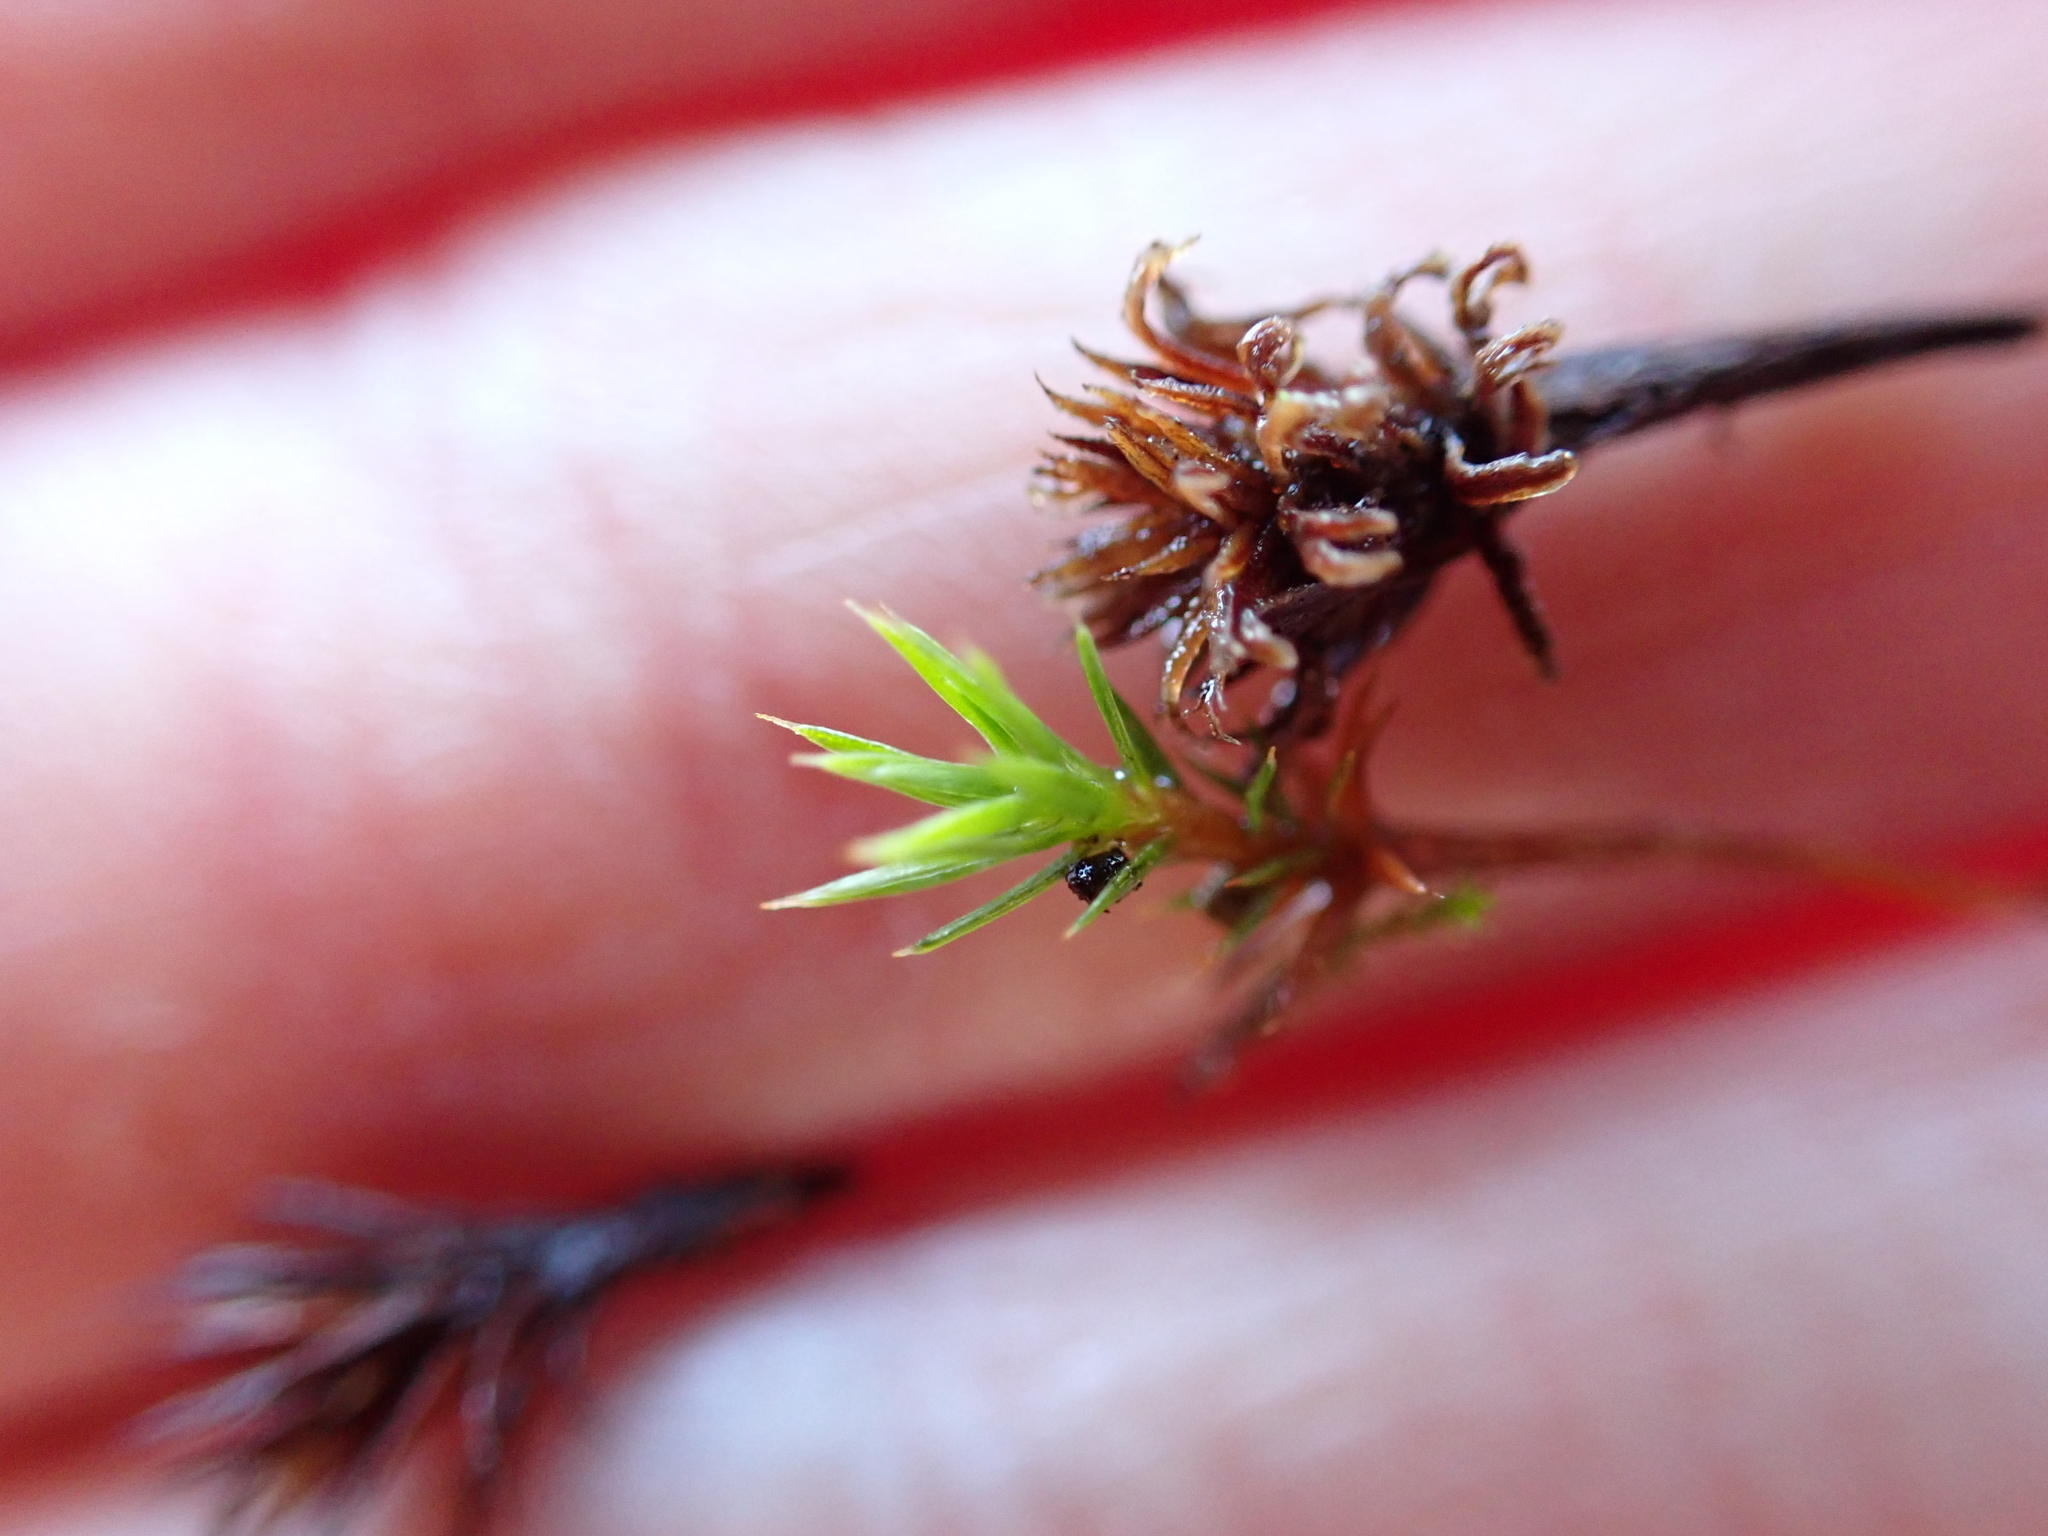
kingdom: Plantae
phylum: Bryophyta
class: Polytrichopsida
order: Polytrichales
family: Polytrichaceae
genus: Polytrichum
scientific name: Polytrichum juniperinum
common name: Juniper haircap moss
